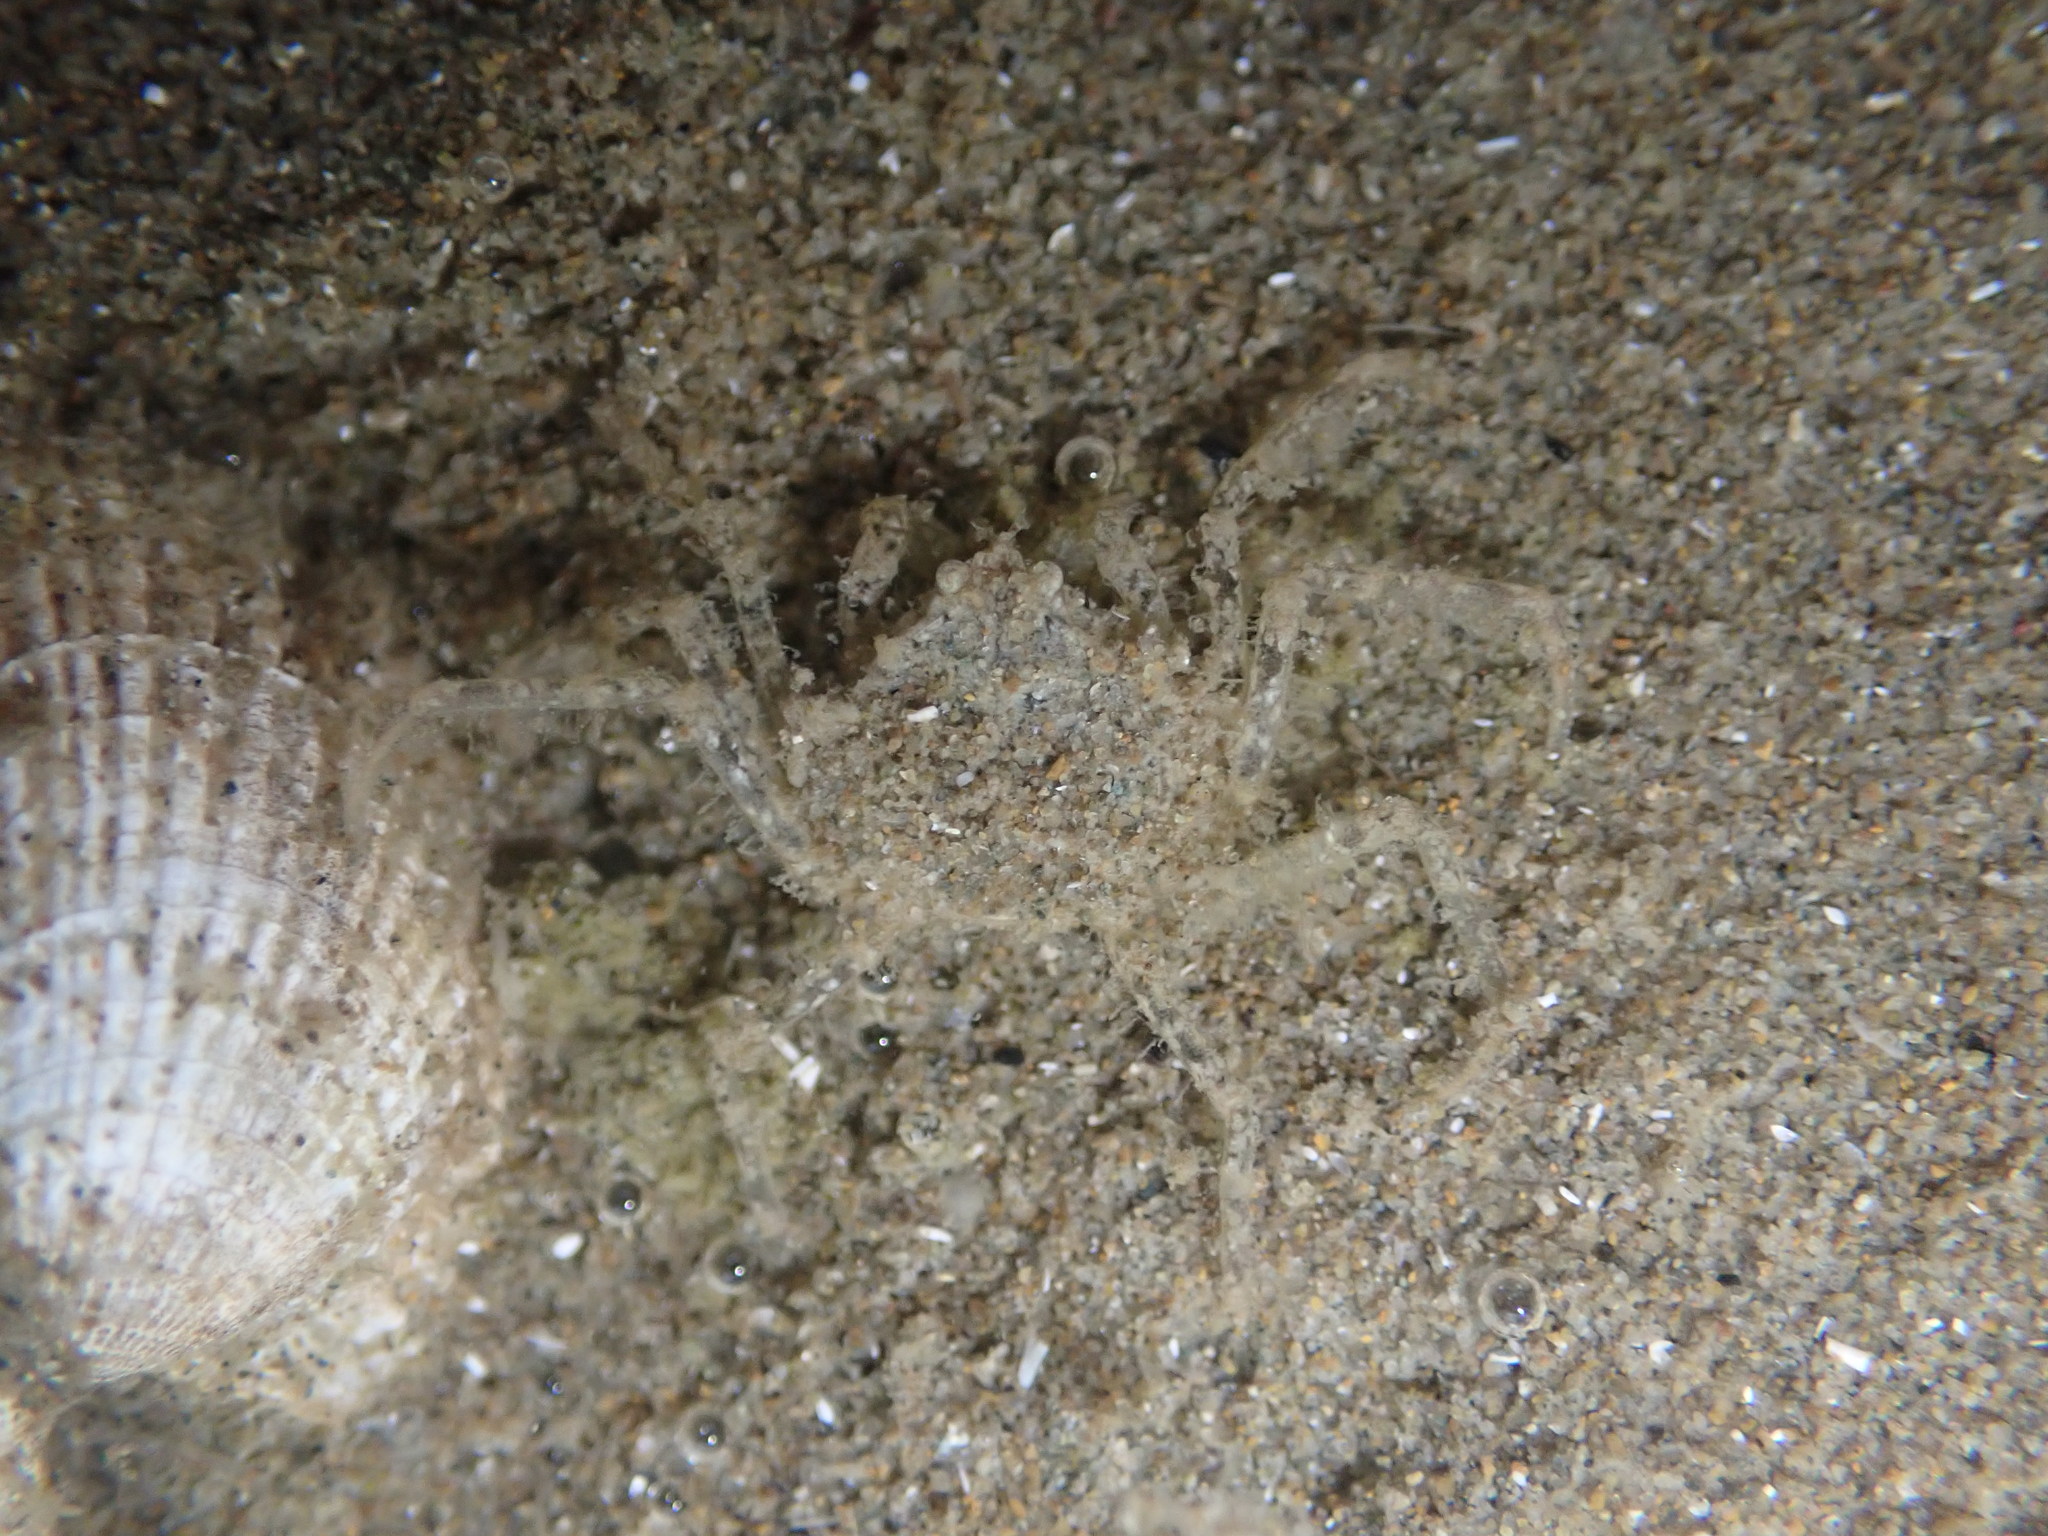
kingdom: Animalia
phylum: Arthropoda
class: Malacostraca
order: Decapoda
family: Hymenosomatidae
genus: Halicarcinus
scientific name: Halicarcinus whitei
